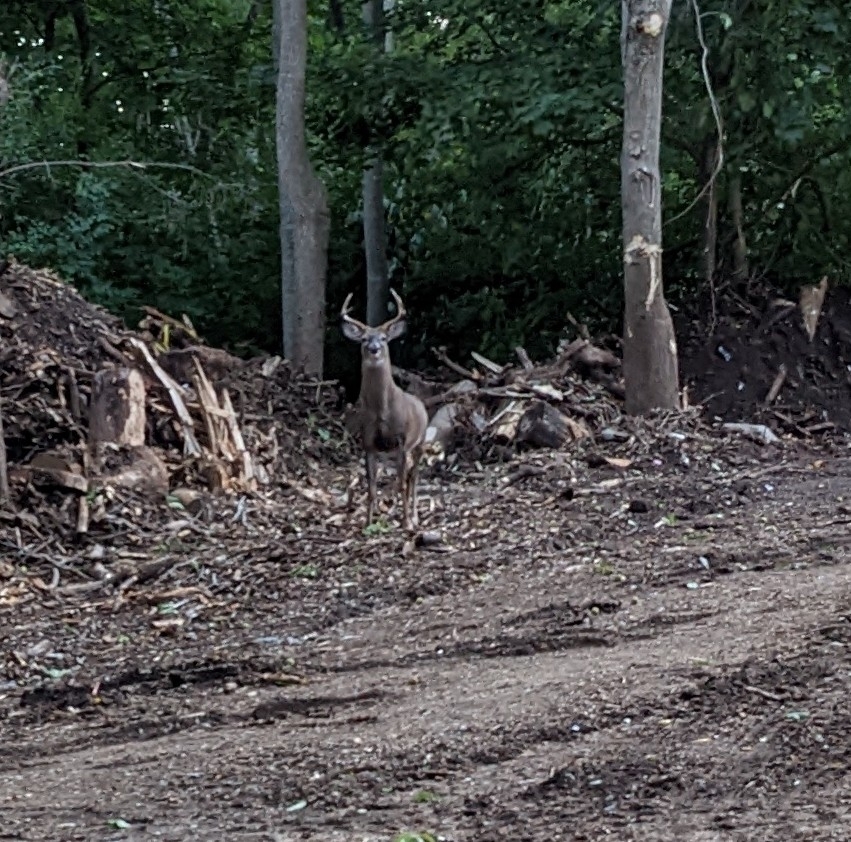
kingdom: Animalia
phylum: Chordata
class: Mammalia
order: Artiodactyla
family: Cervidae
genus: Odocoileus
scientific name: Odocoileus virginianus
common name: White-tailed deer
